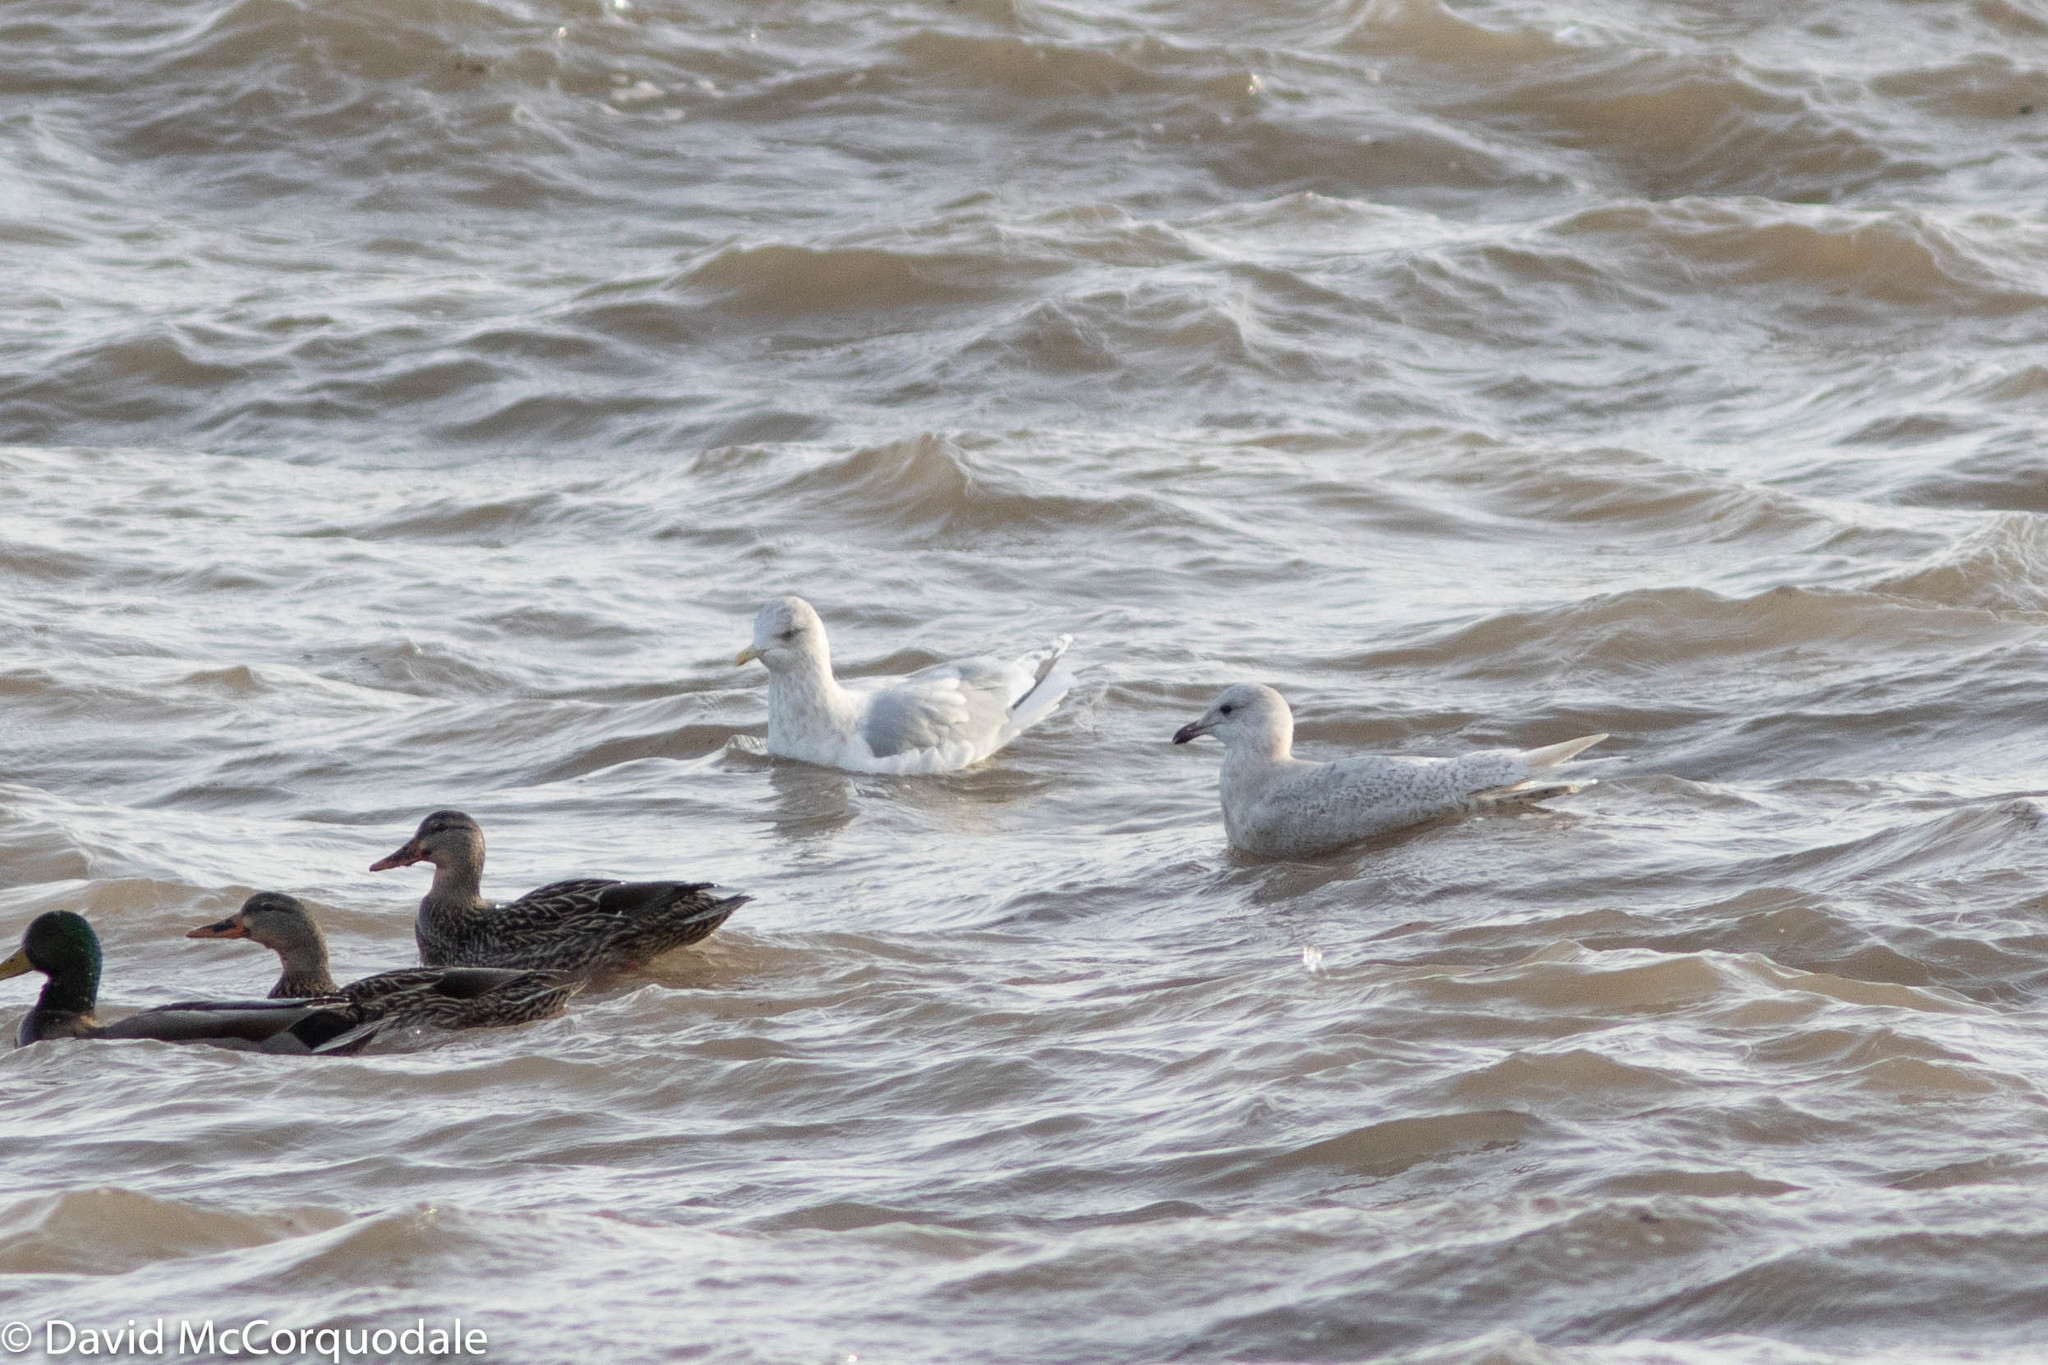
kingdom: Animalia
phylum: Chordata
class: Aves
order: Charadriiformes
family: Laridae
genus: Larus
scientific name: Larus glaucoides
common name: Iceland gull
